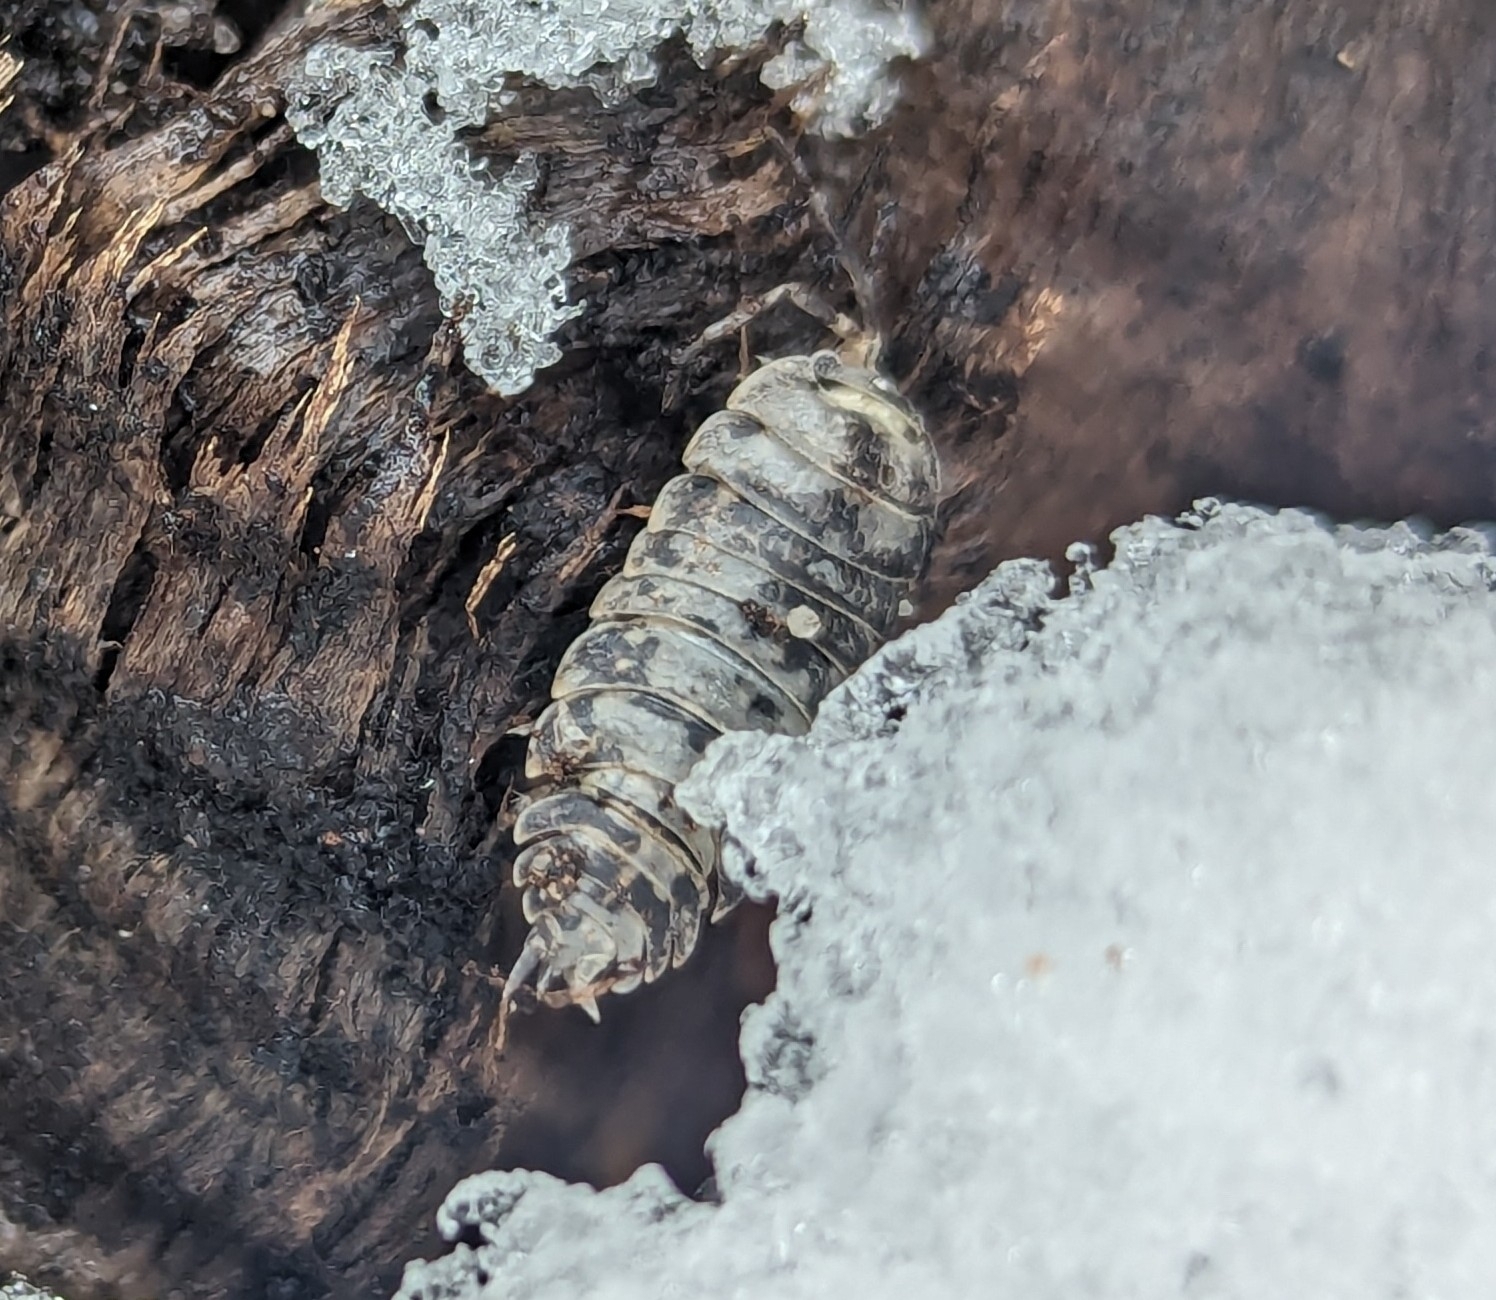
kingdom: Animalia
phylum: Arthropoda
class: Malacostraca
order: Isopoda
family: Trachelipodidae
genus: Trachelipus
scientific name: Trachelipus rathkii
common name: Isopod
